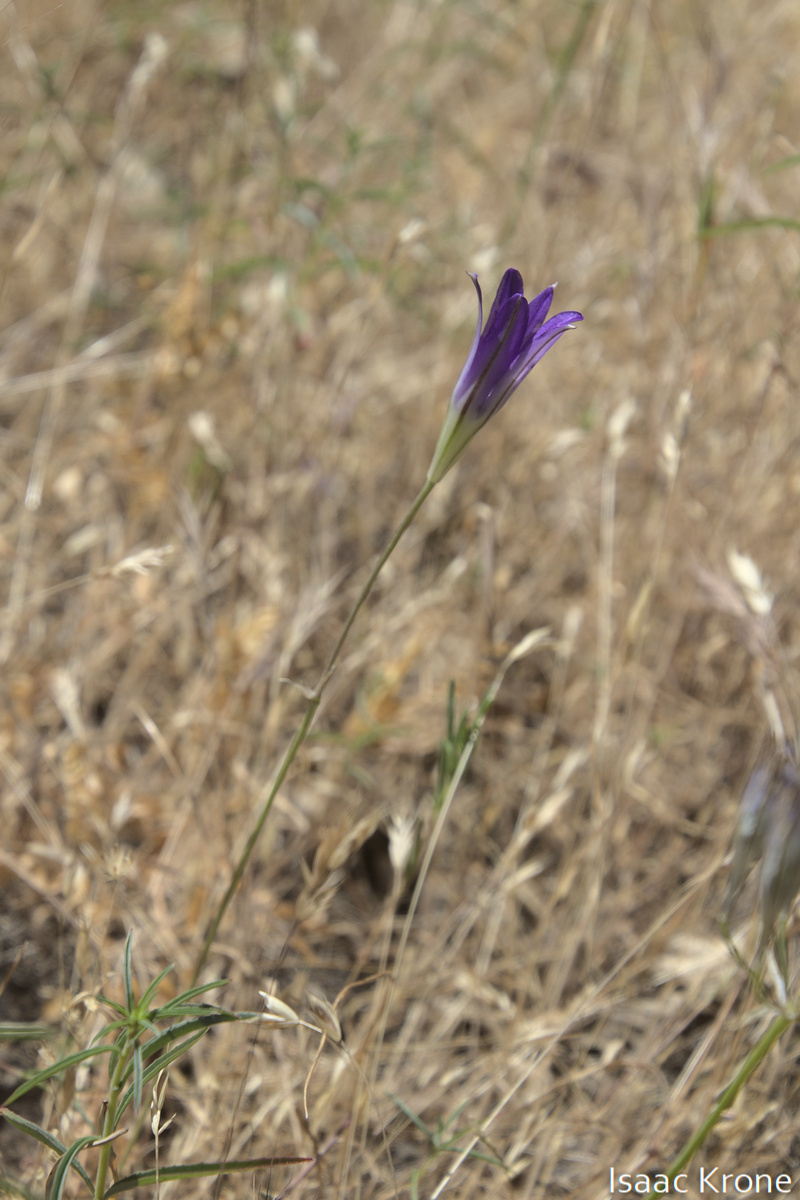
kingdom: Plantae
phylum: Tracheophyta
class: Liliopsida
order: Asparagales
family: Asparagaceae
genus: Brodiaea
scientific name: Brodiaea elegans
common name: Elegant cluster-lily
